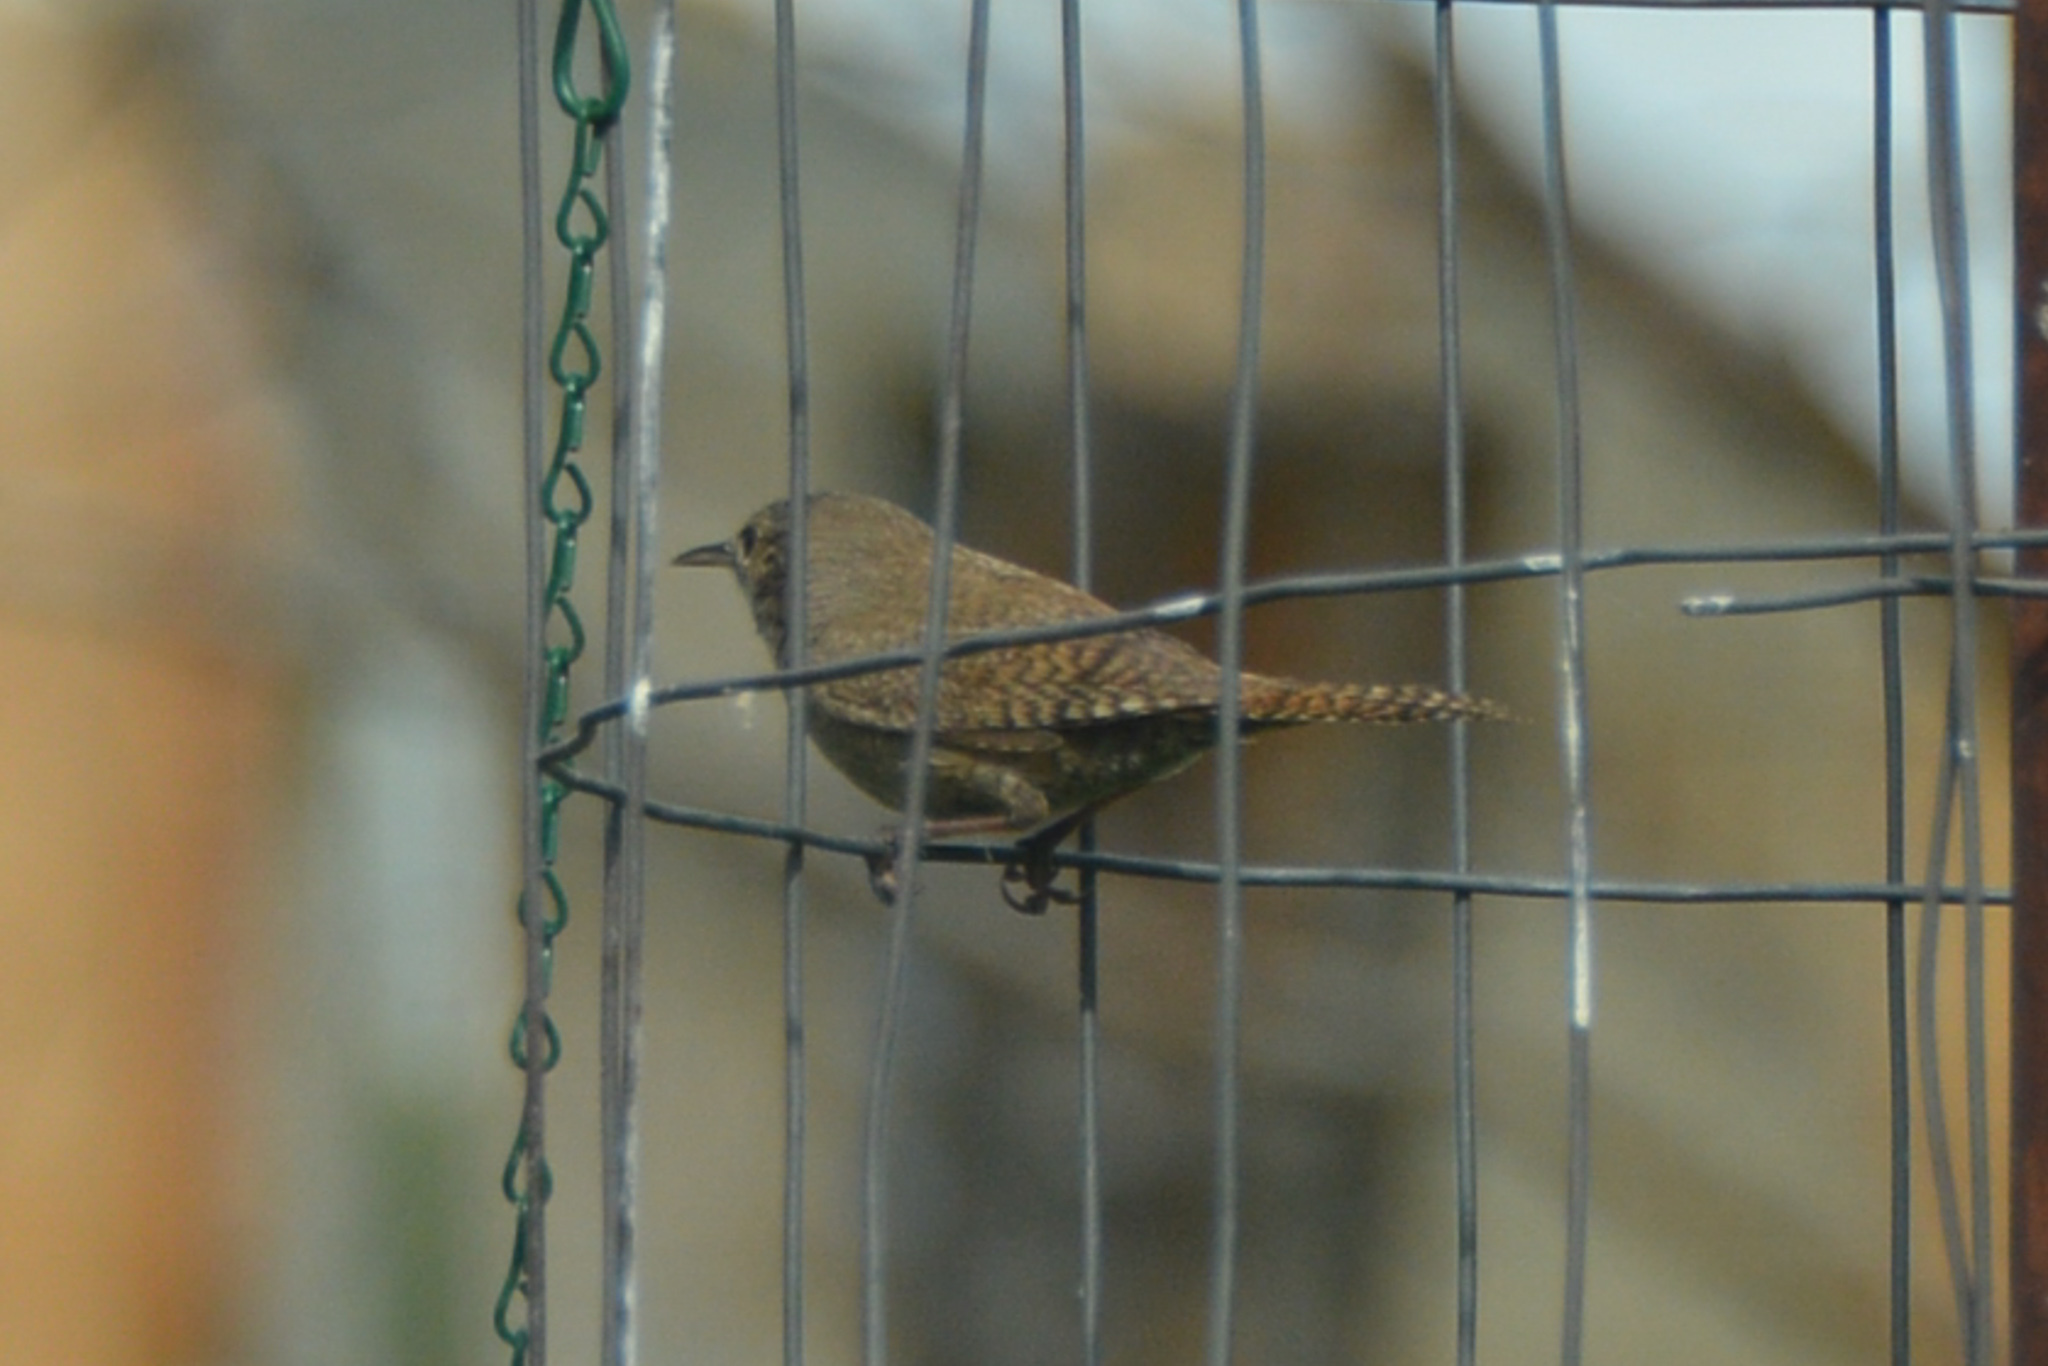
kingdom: Animalia
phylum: Chordata
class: Aves
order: Passeriformes
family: Troglodytidae
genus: Troglodytes
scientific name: Troglodytes aedon
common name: House wren
